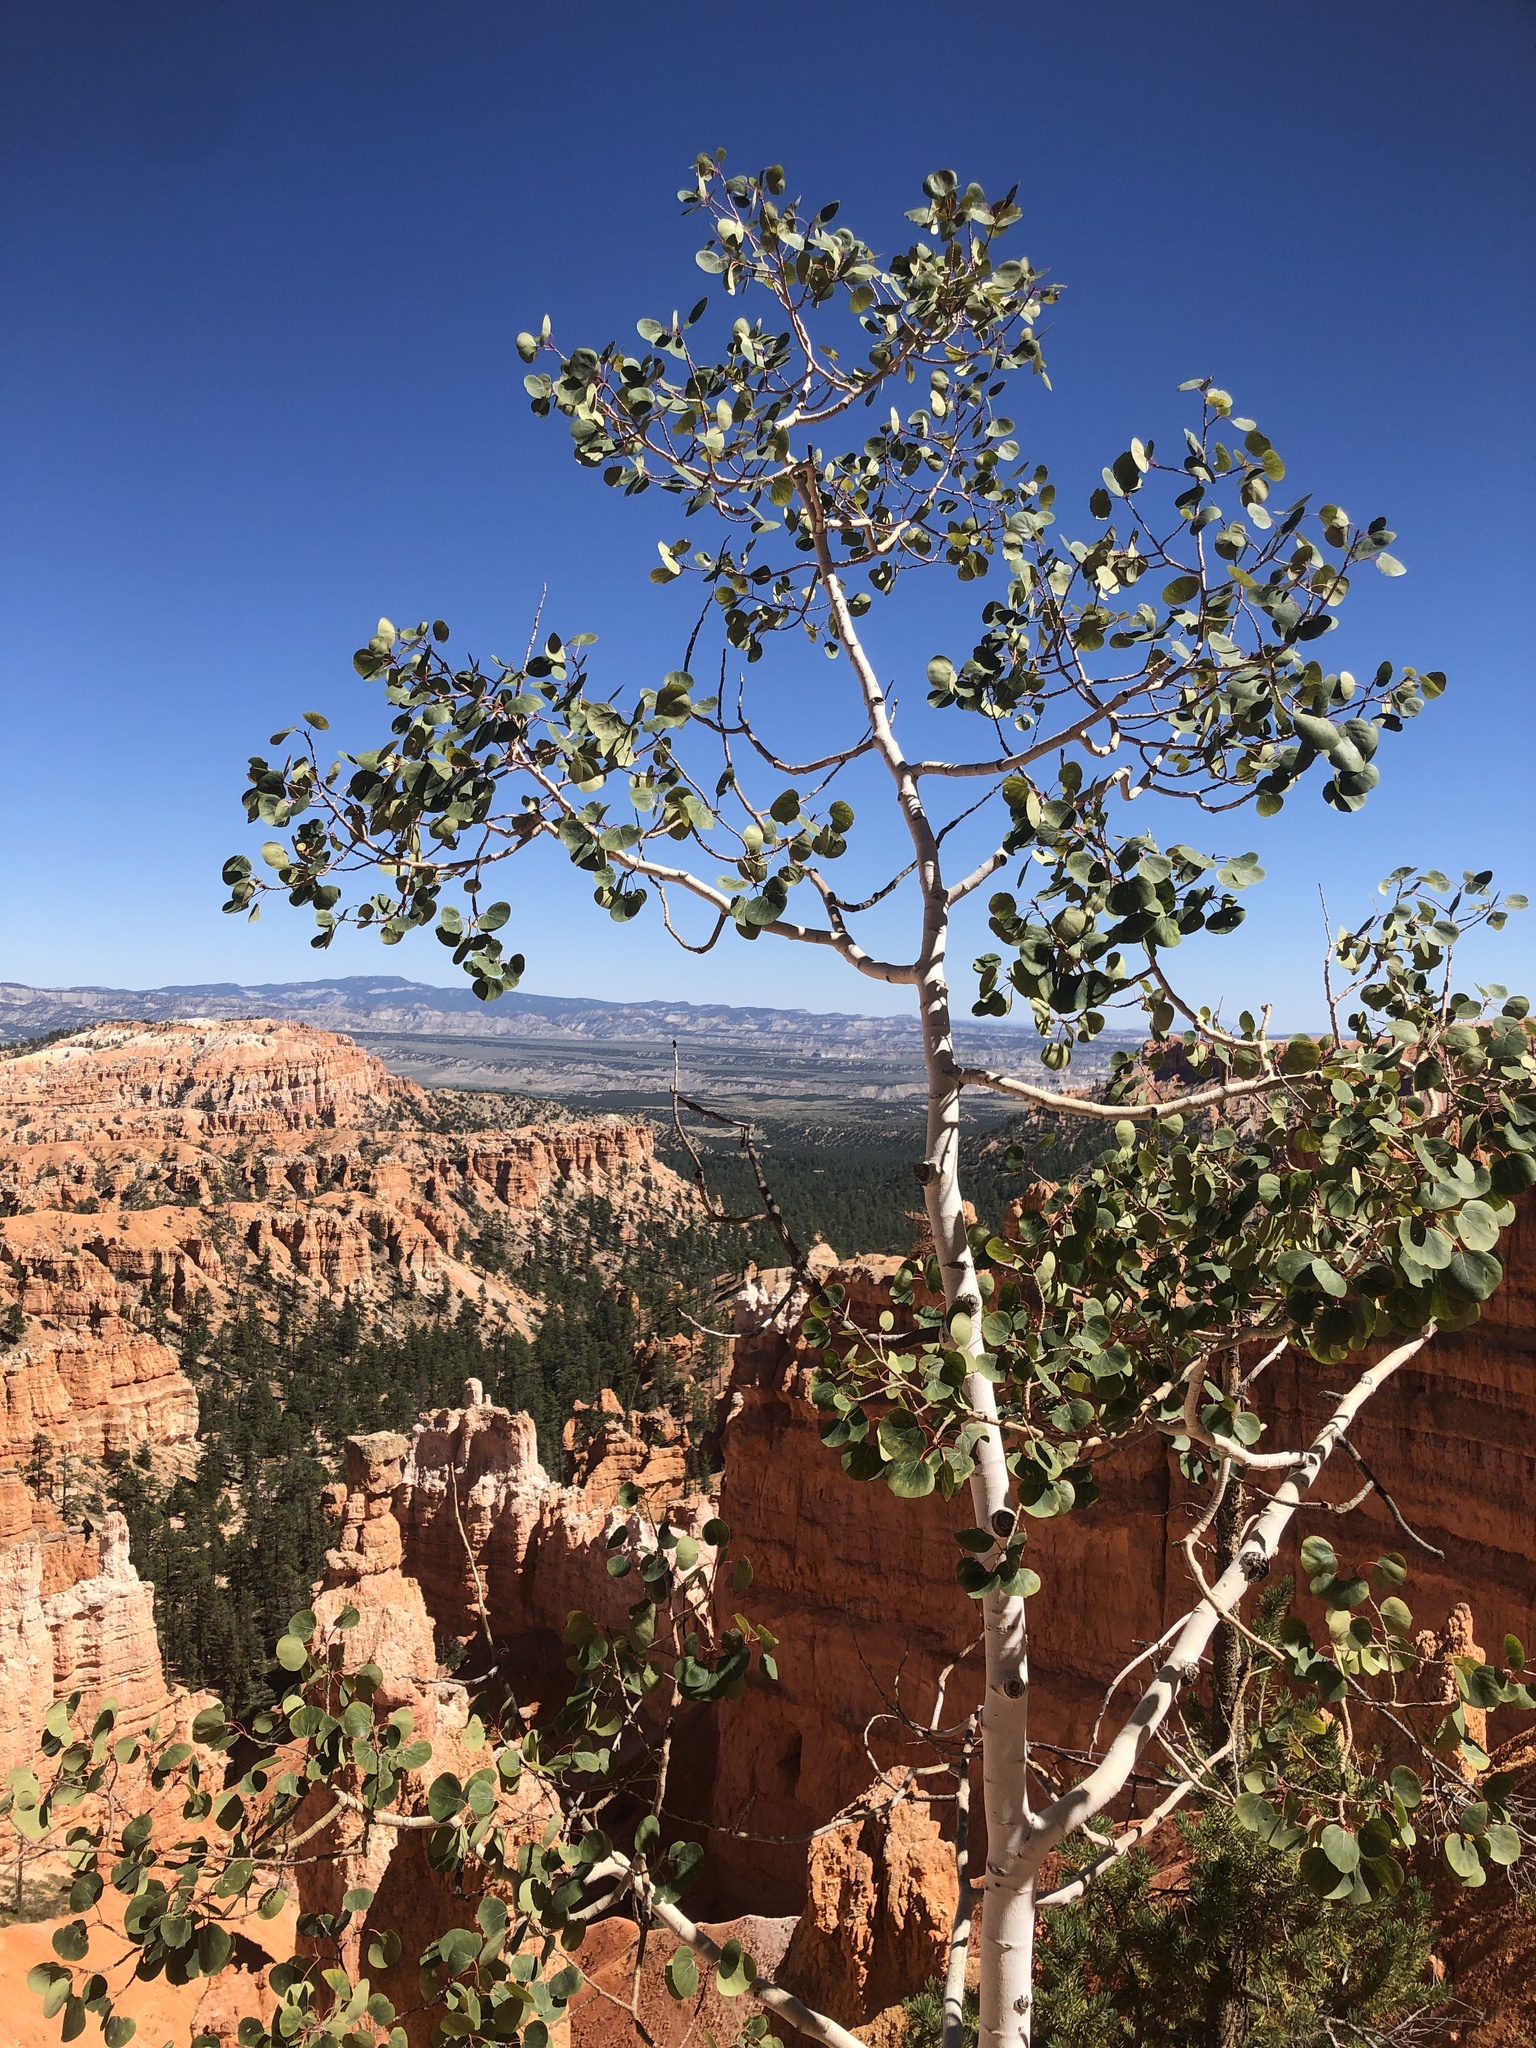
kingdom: Plantae
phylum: Tracheophyta
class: Magnoliopsida
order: Malpighiales
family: Salicaceae
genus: Populus
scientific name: Populus tremuloides
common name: Quaking aspen
